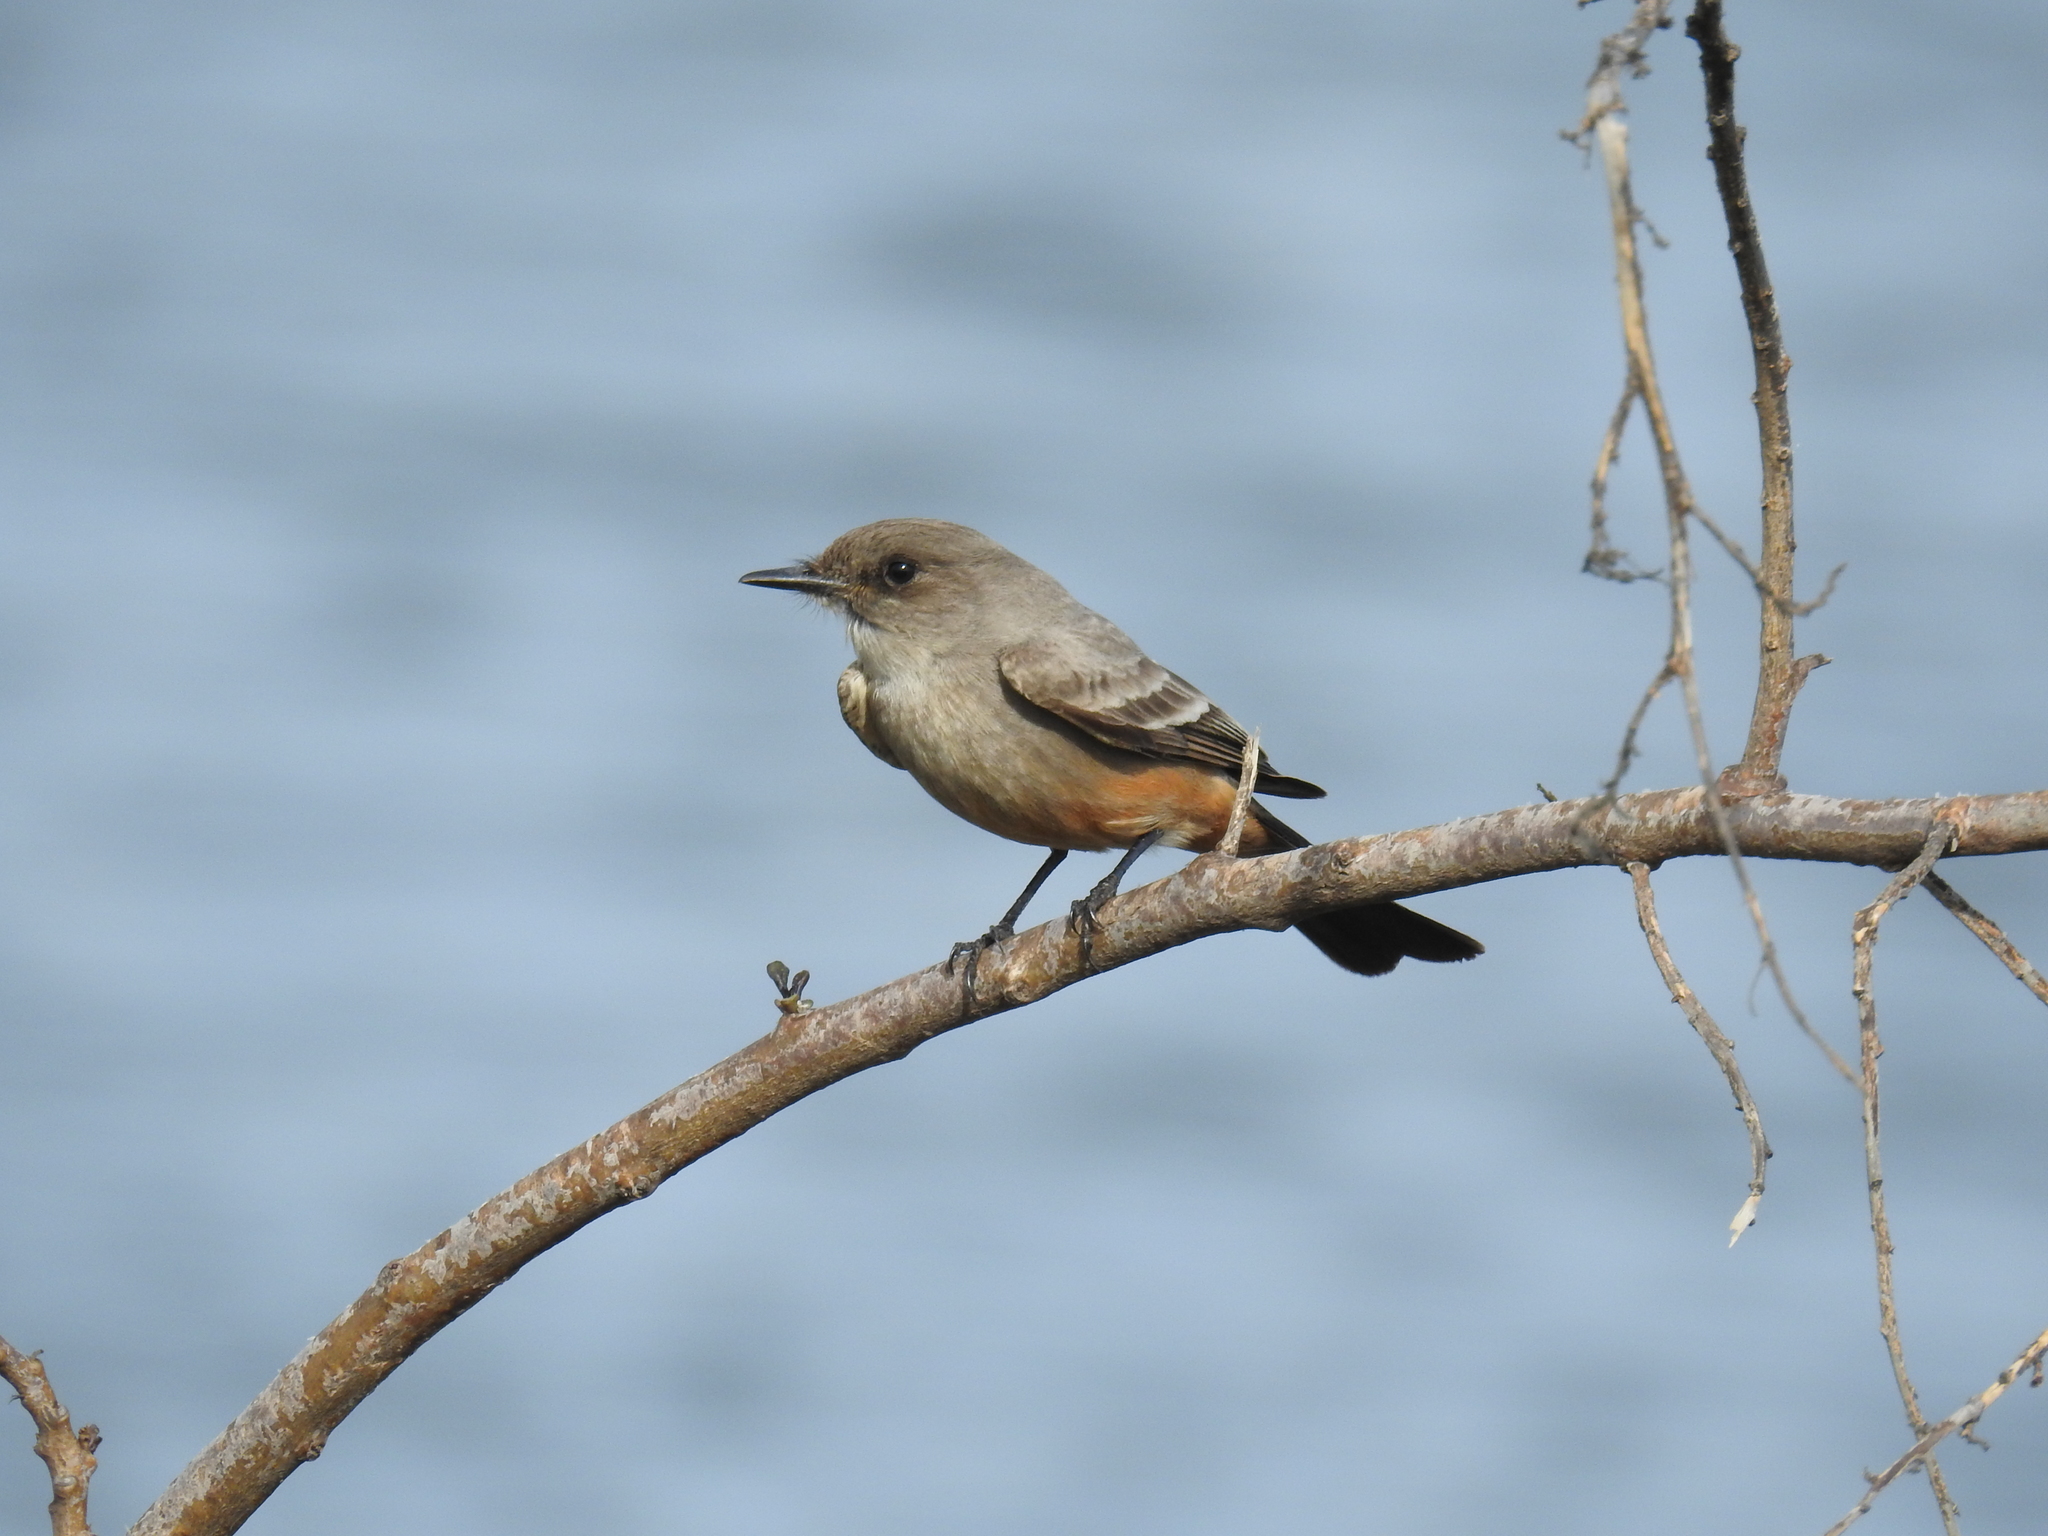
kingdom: Animalia
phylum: Chordata
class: Aves
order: Passeriformes
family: Tyrannidae
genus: Sayornis
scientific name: Sayornis saya
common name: Say's phoebe
